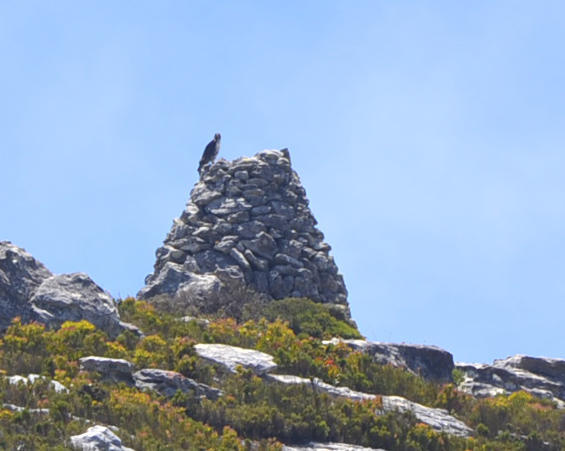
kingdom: Animalia
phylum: Chordata
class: Aves
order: Accipitriformes
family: Accipitridae
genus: Buteo
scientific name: Buteo rufofuscus
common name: Jackal buzzard
